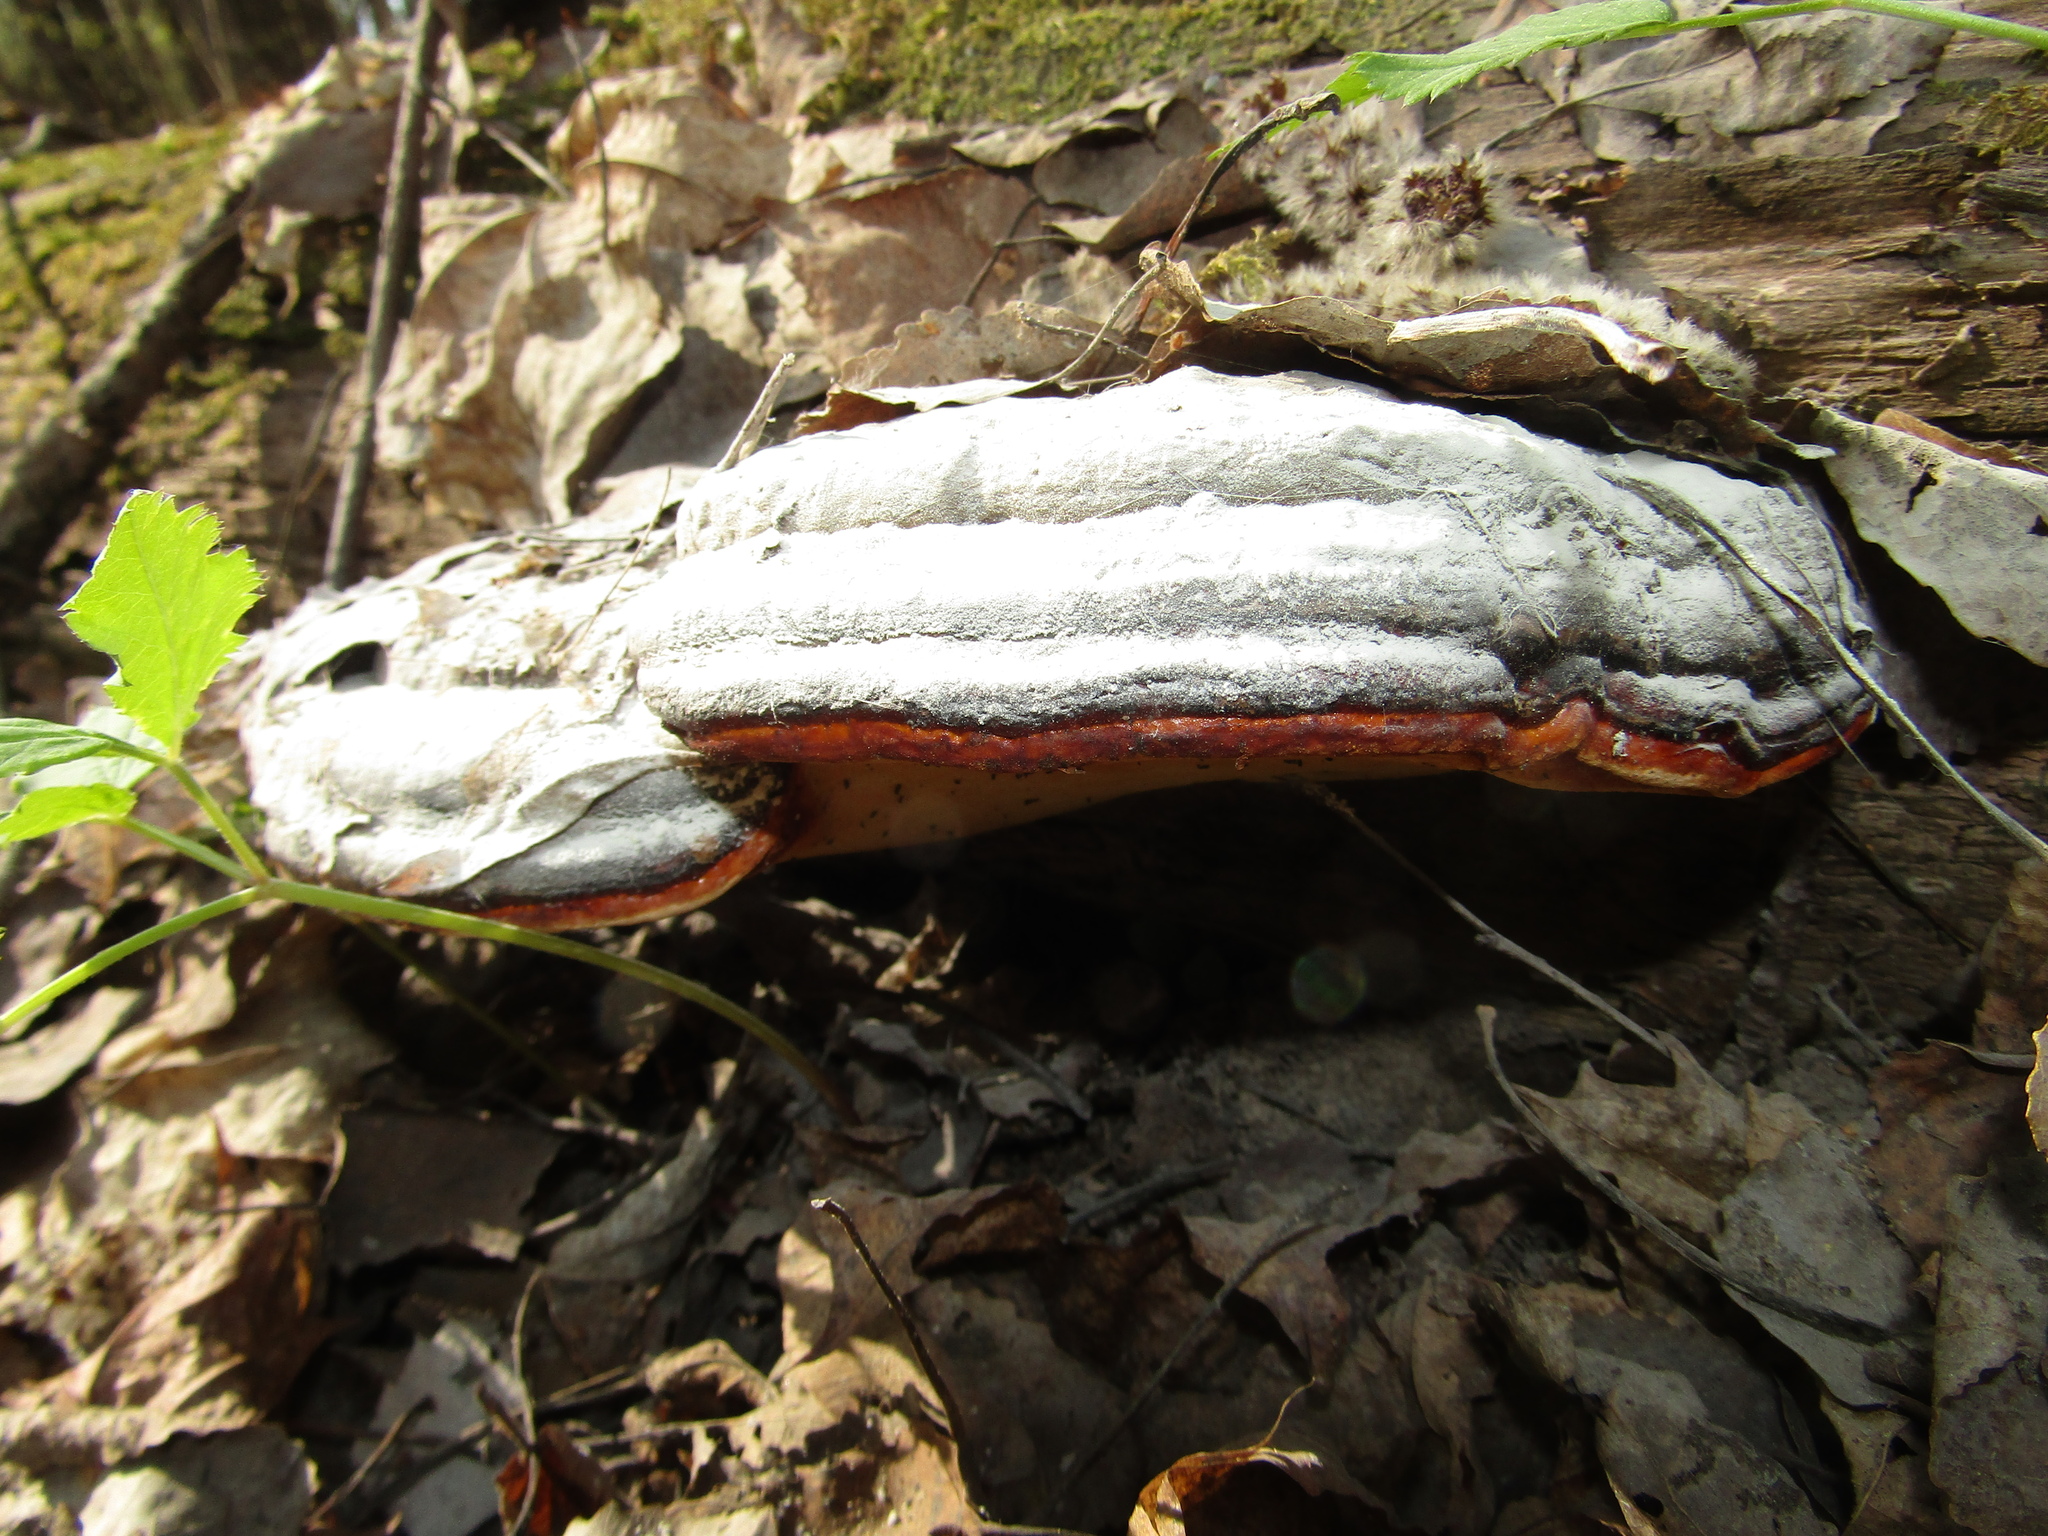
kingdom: Fungi
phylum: Basidiomycota
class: Agaricomycetes
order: Polyporales
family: Fomitopsidaceae
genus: Fomitopsis
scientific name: Fomitopsis pinicola
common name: Red-belted bracket
